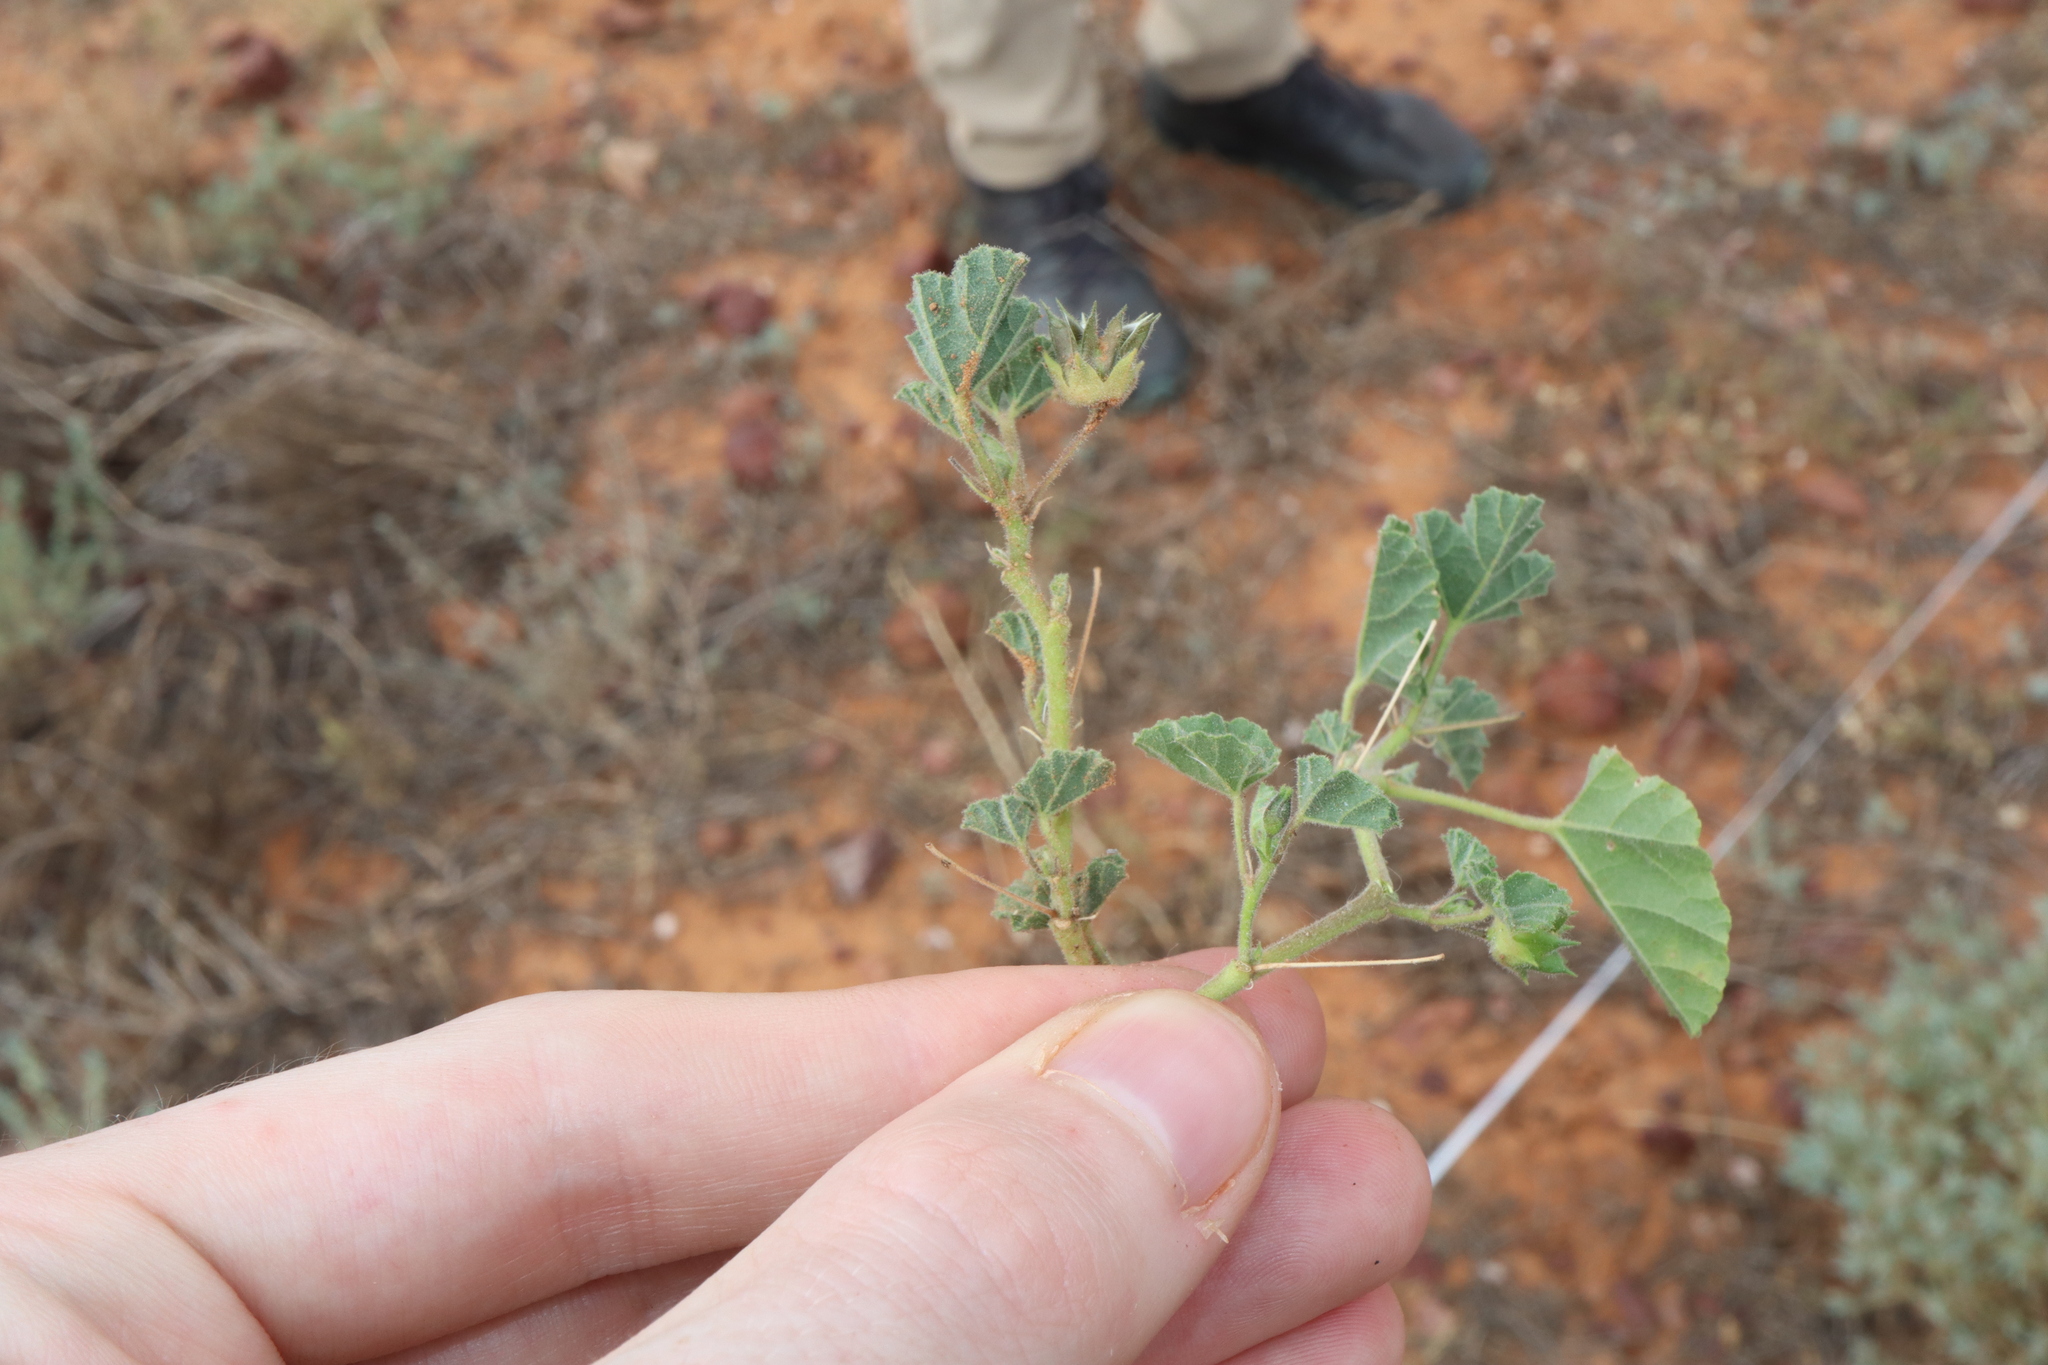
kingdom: Plantae
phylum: Tracheophyta
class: Magnoliopsida
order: Malvales
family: Malvaceae
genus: Abutilon
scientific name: Abutilon malvifolium
